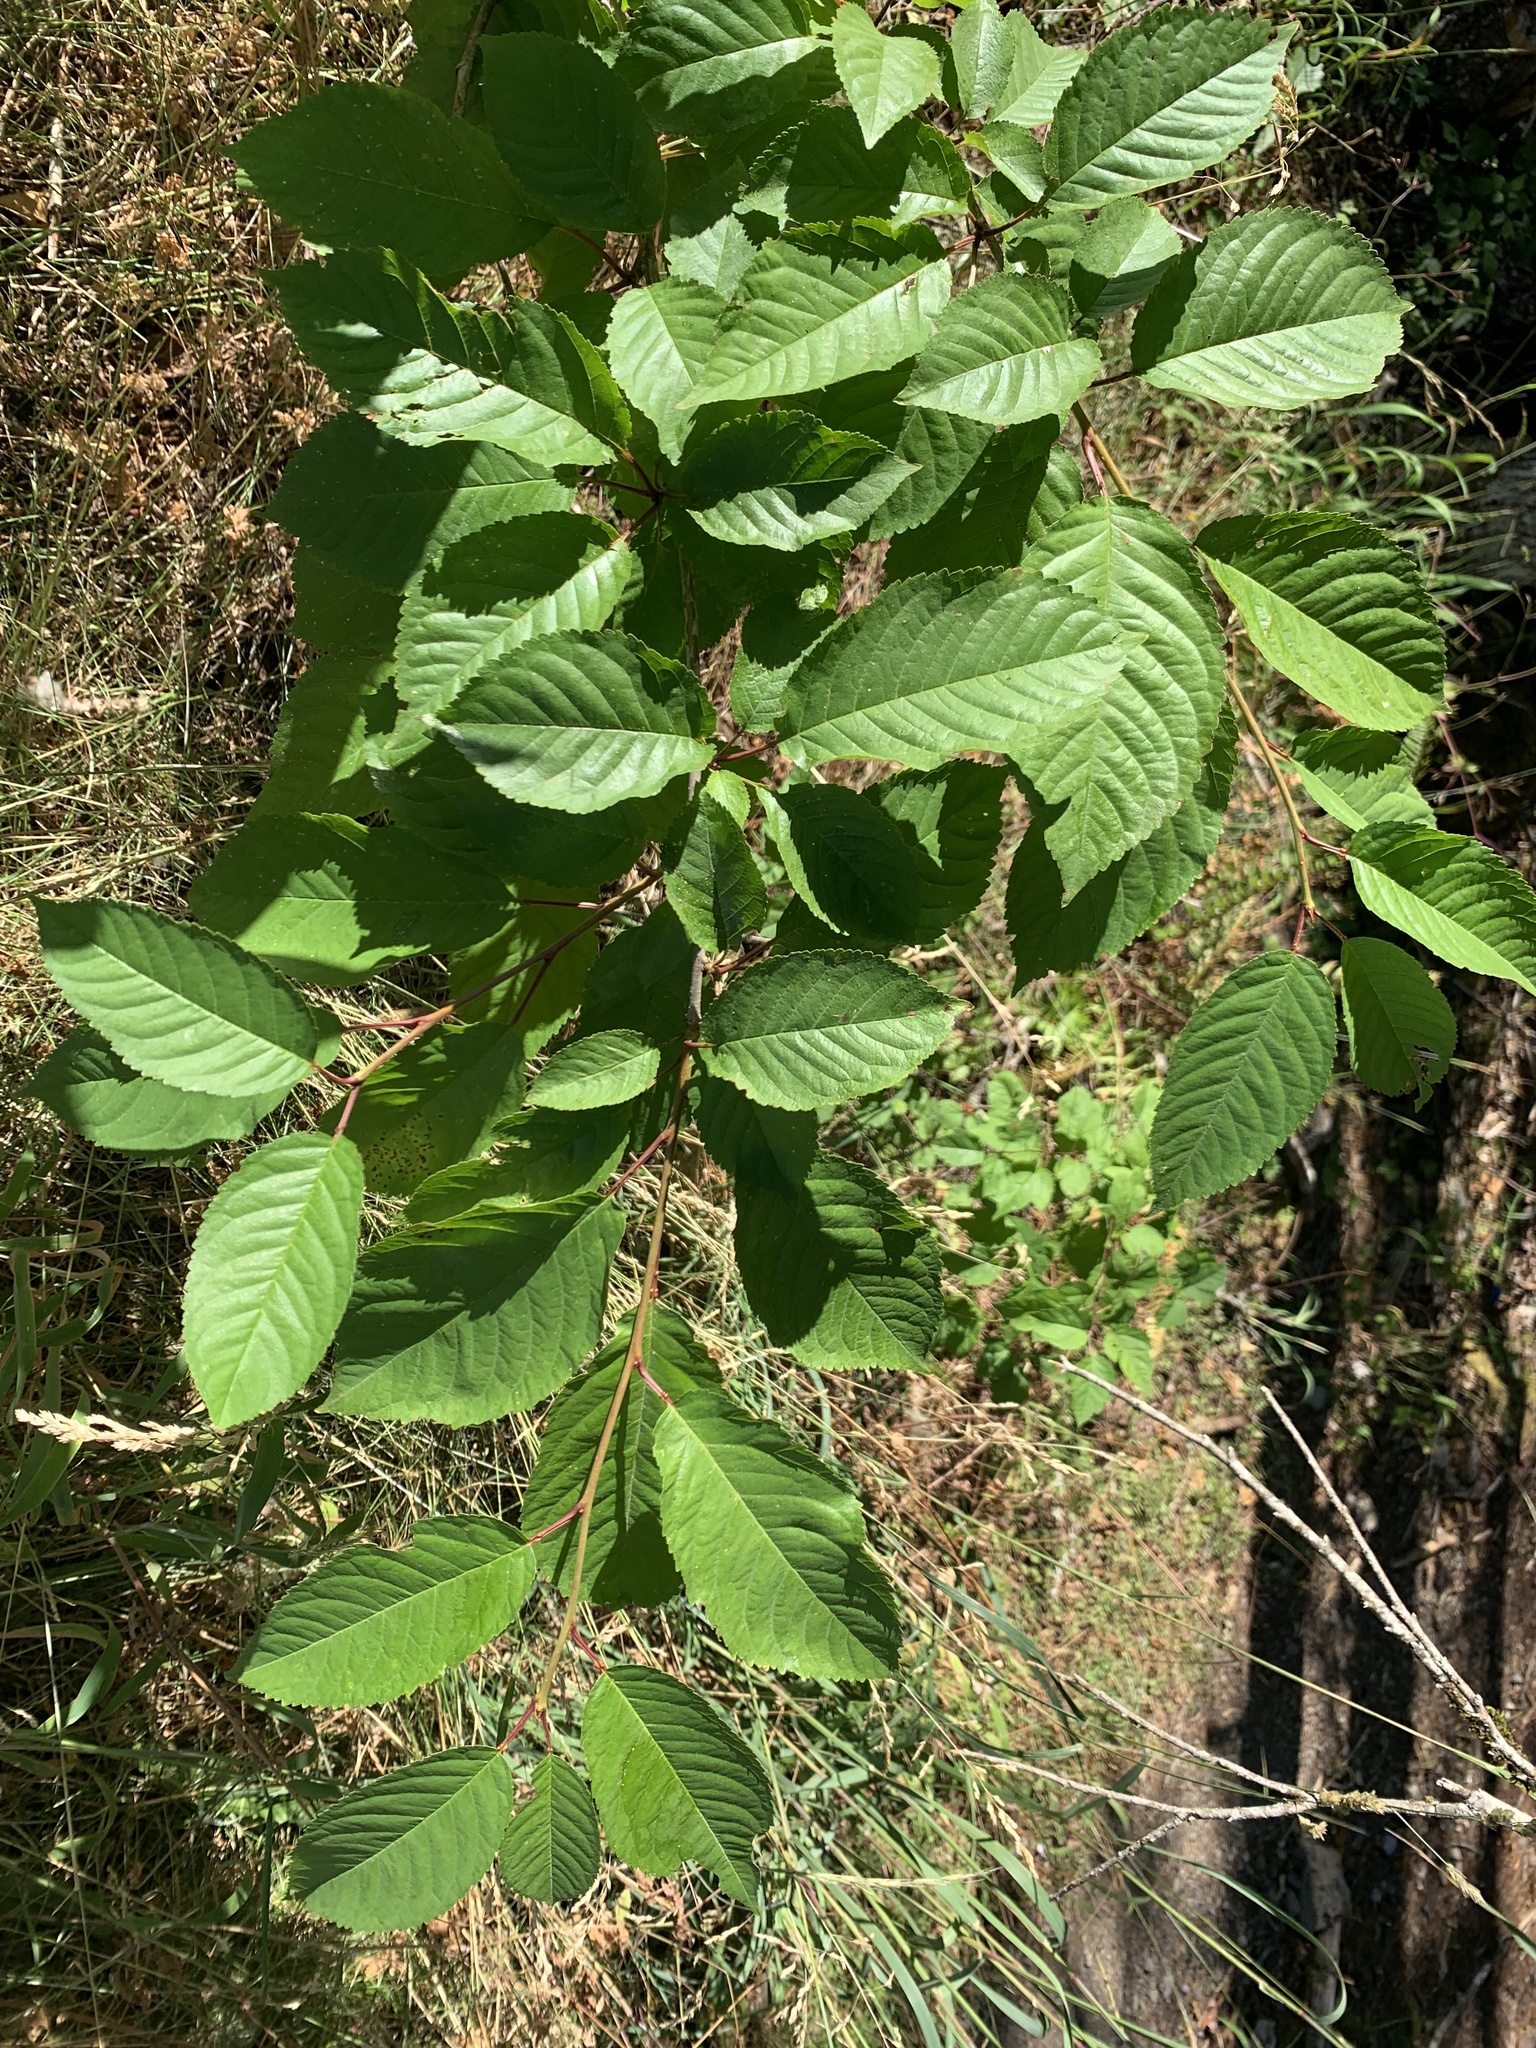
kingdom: Plantae
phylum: Tracheophyta
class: Magnoliopsida
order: Rosales
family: Rosaceae
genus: Prunus
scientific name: Prunus emarginata
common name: Bitter cherry
